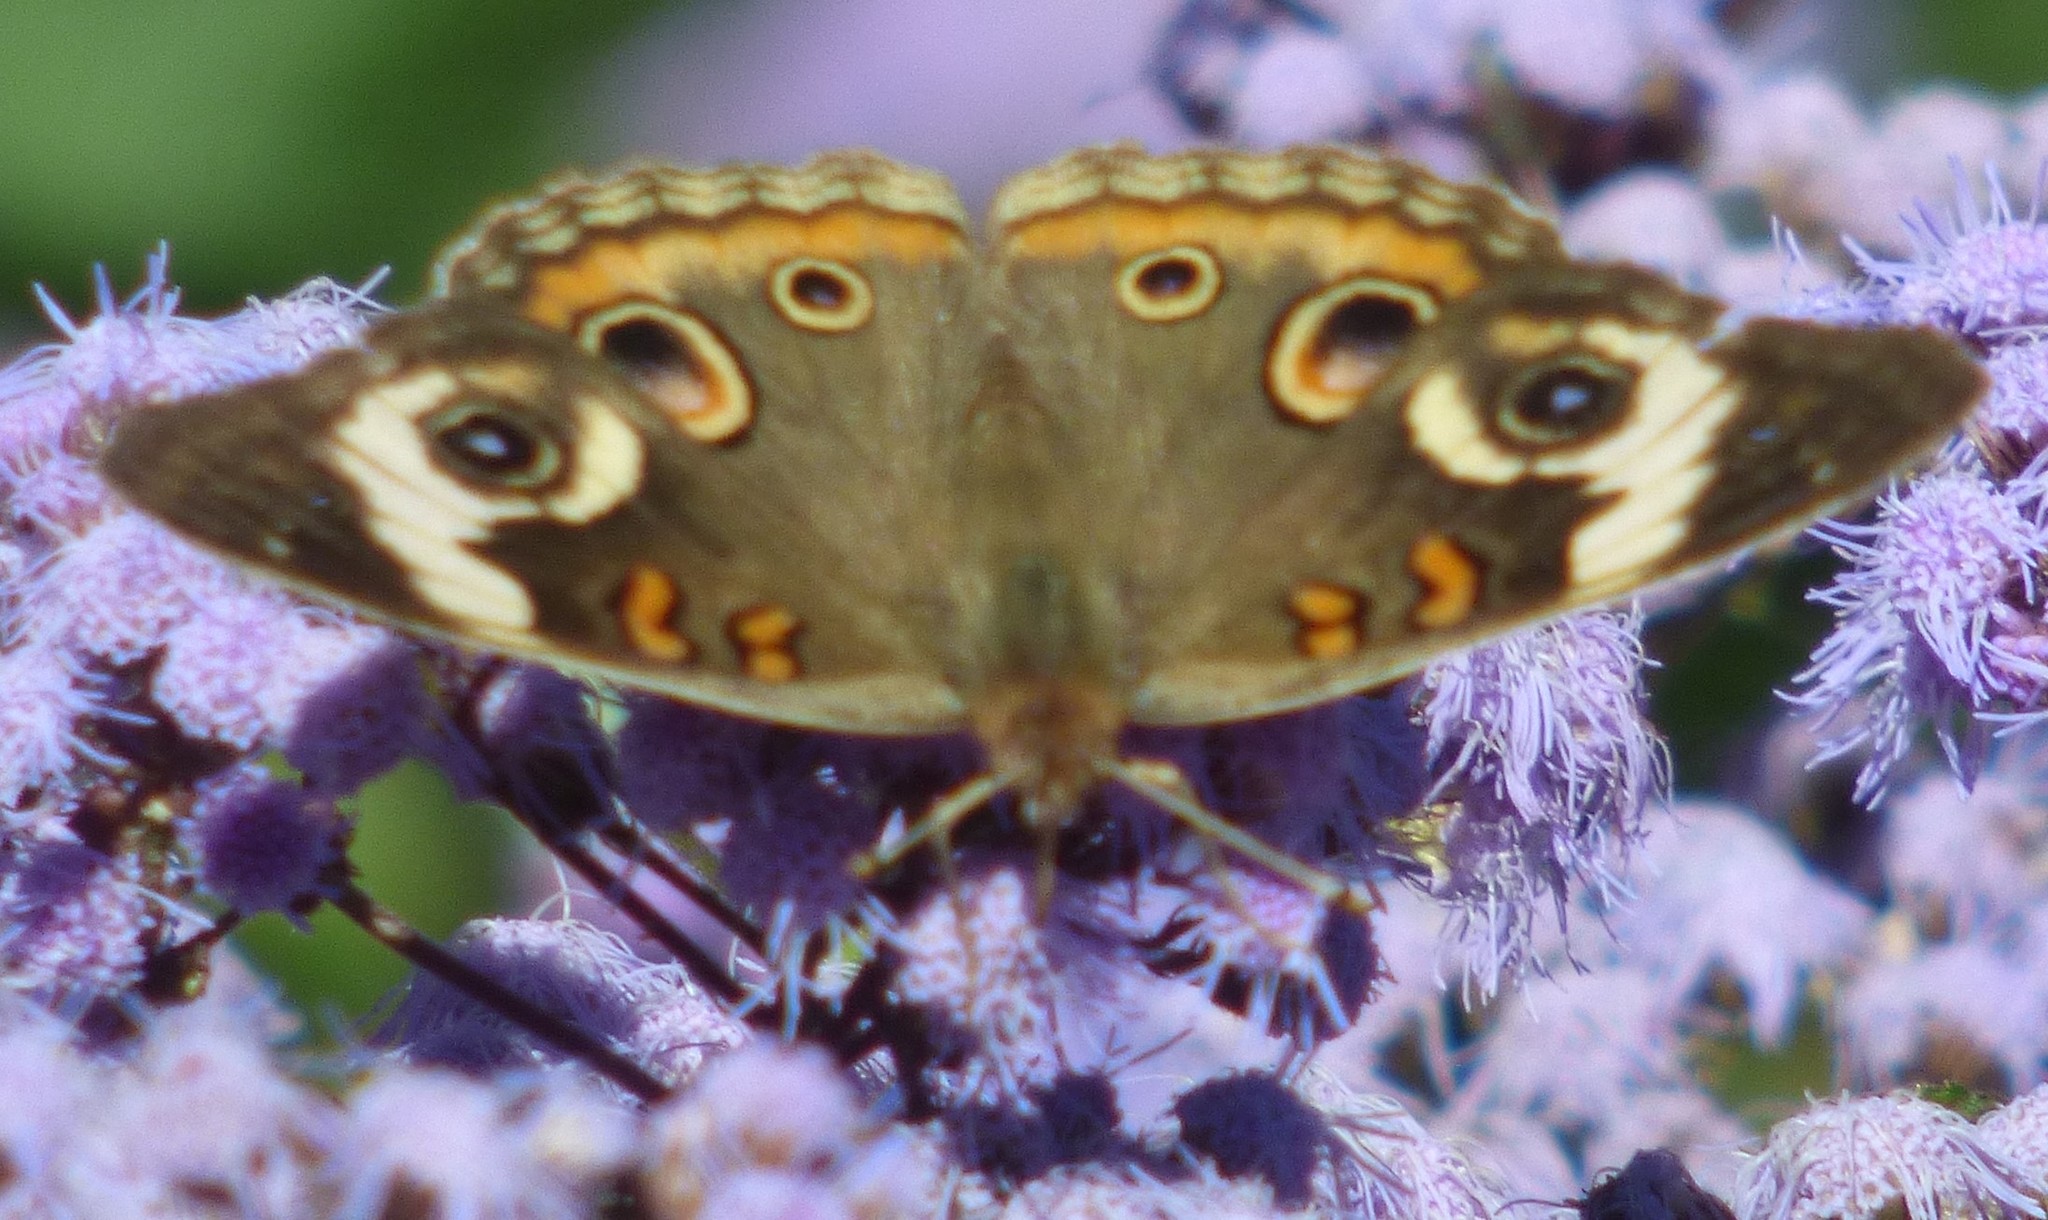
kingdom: Animalia
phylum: Arthropoda
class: Insecta
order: Lepidoptera
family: Nymphalidae
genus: Junonia
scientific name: Junonia coenia
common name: Common buckeye
